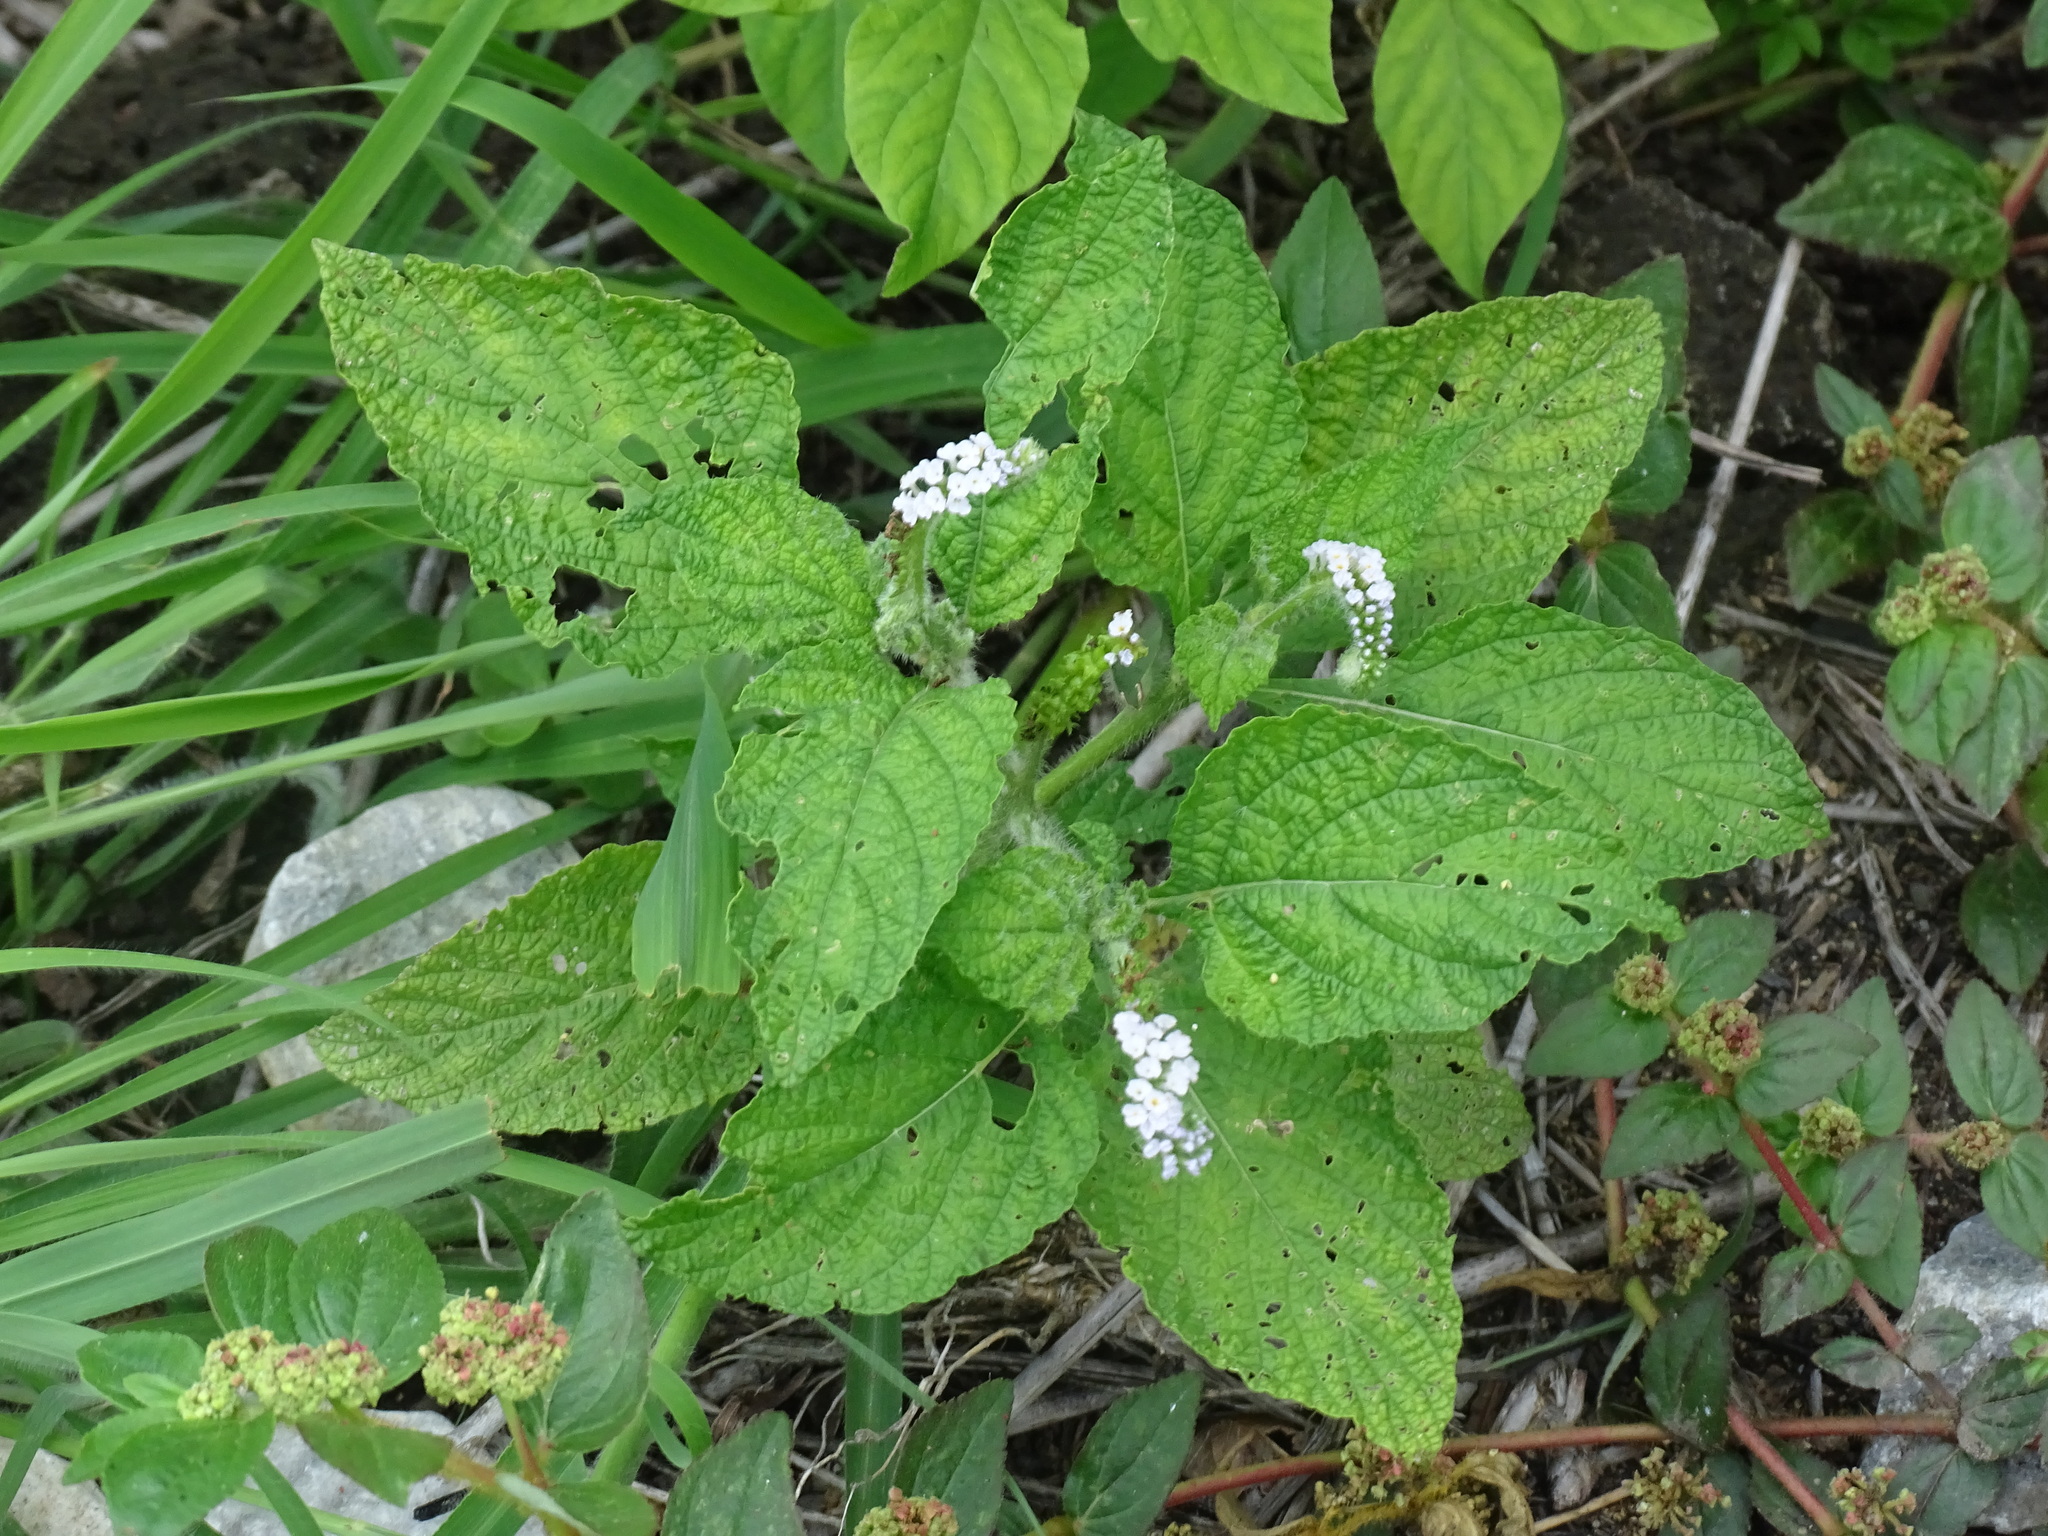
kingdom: Plantae
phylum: Tracheophyta
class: Magnoliopsida
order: Boraginales
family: Heliotropiaceae
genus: Heliotropium
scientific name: Heliotropium indicum
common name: Indian heliotrope
